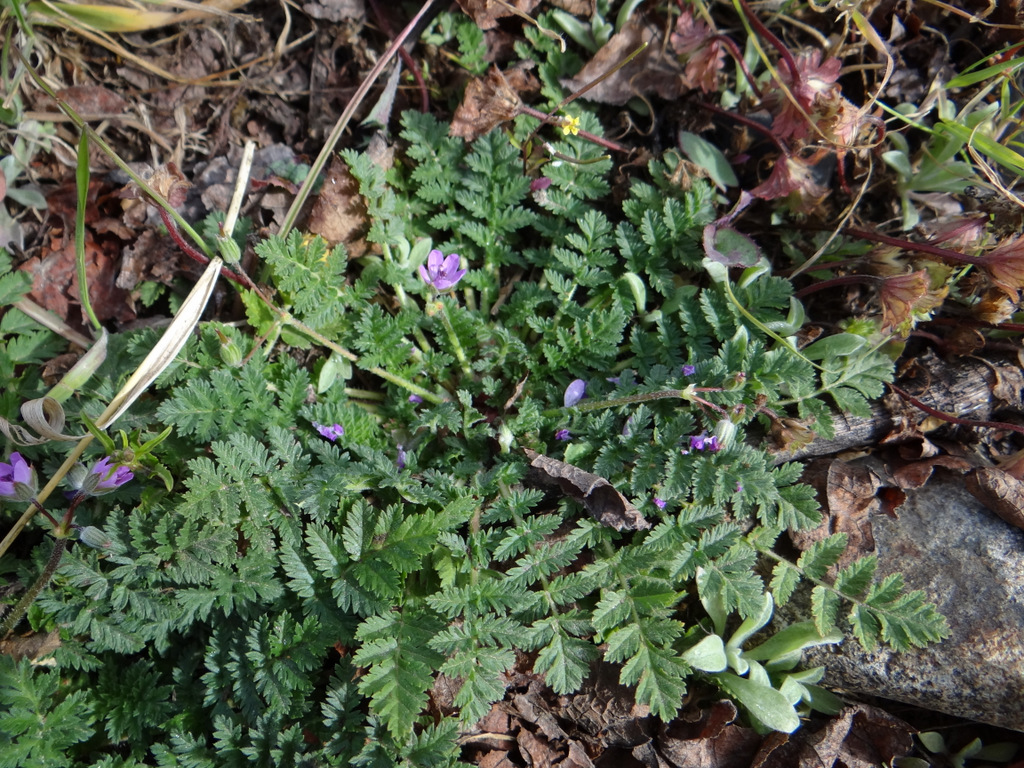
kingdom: Plantae
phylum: Tracheophyta
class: Magnoliopsida
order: Geraniales
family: Geraniaceae
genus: Erodium
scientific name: Erodium cicutarium
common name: Common stork's-bill
